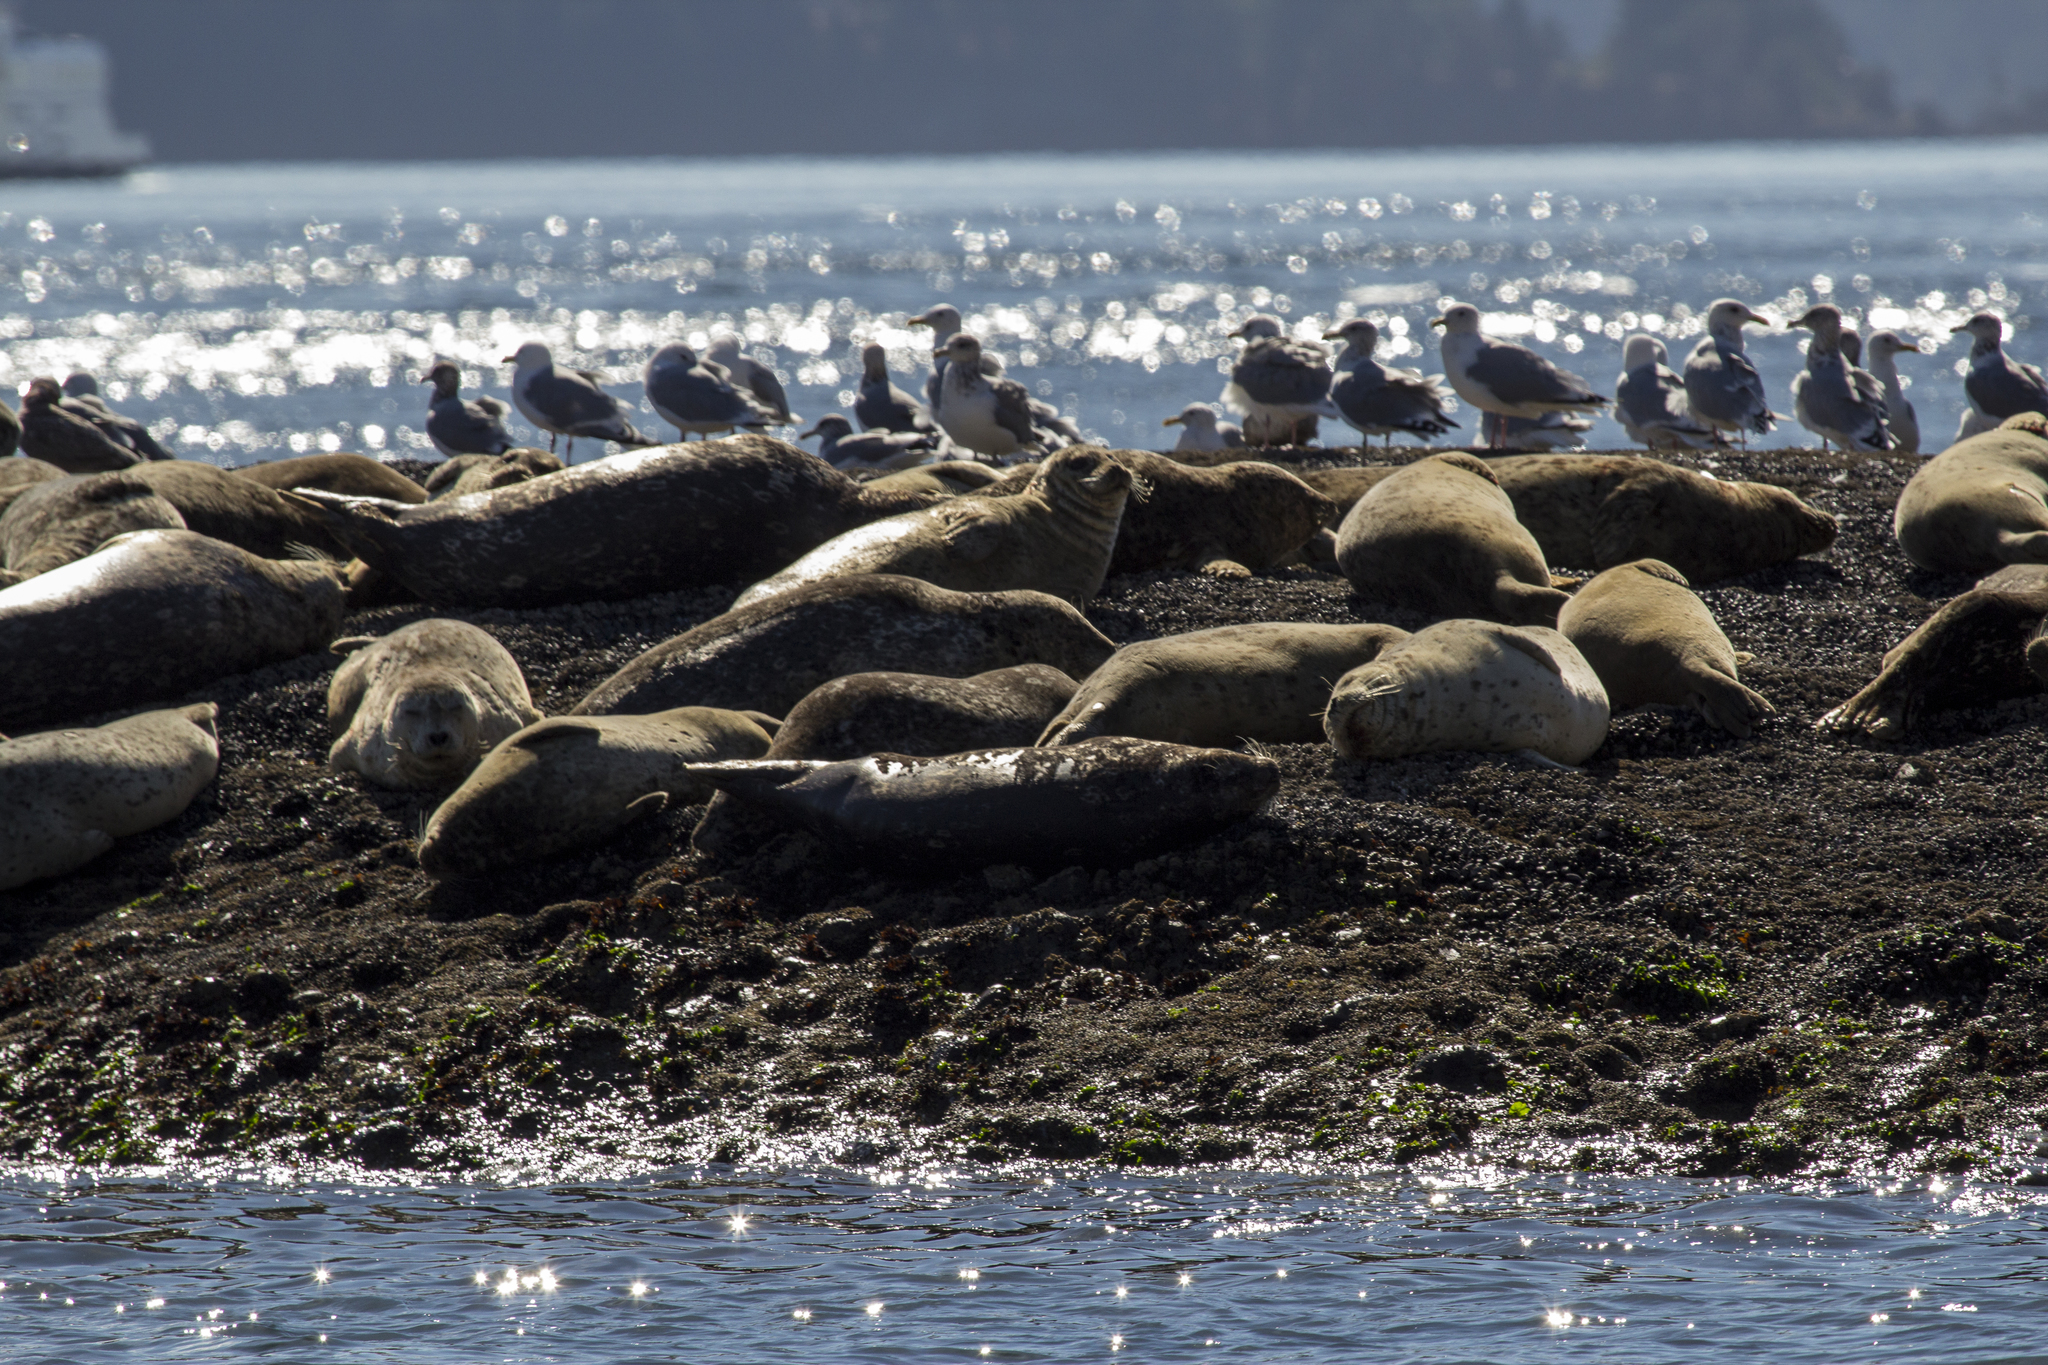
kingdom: Animalia
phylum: Chordata
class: Mammalia
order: Carnivora
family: Phocidae
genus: Phoca
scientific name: Phoca vitulina
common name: Harbor seal
